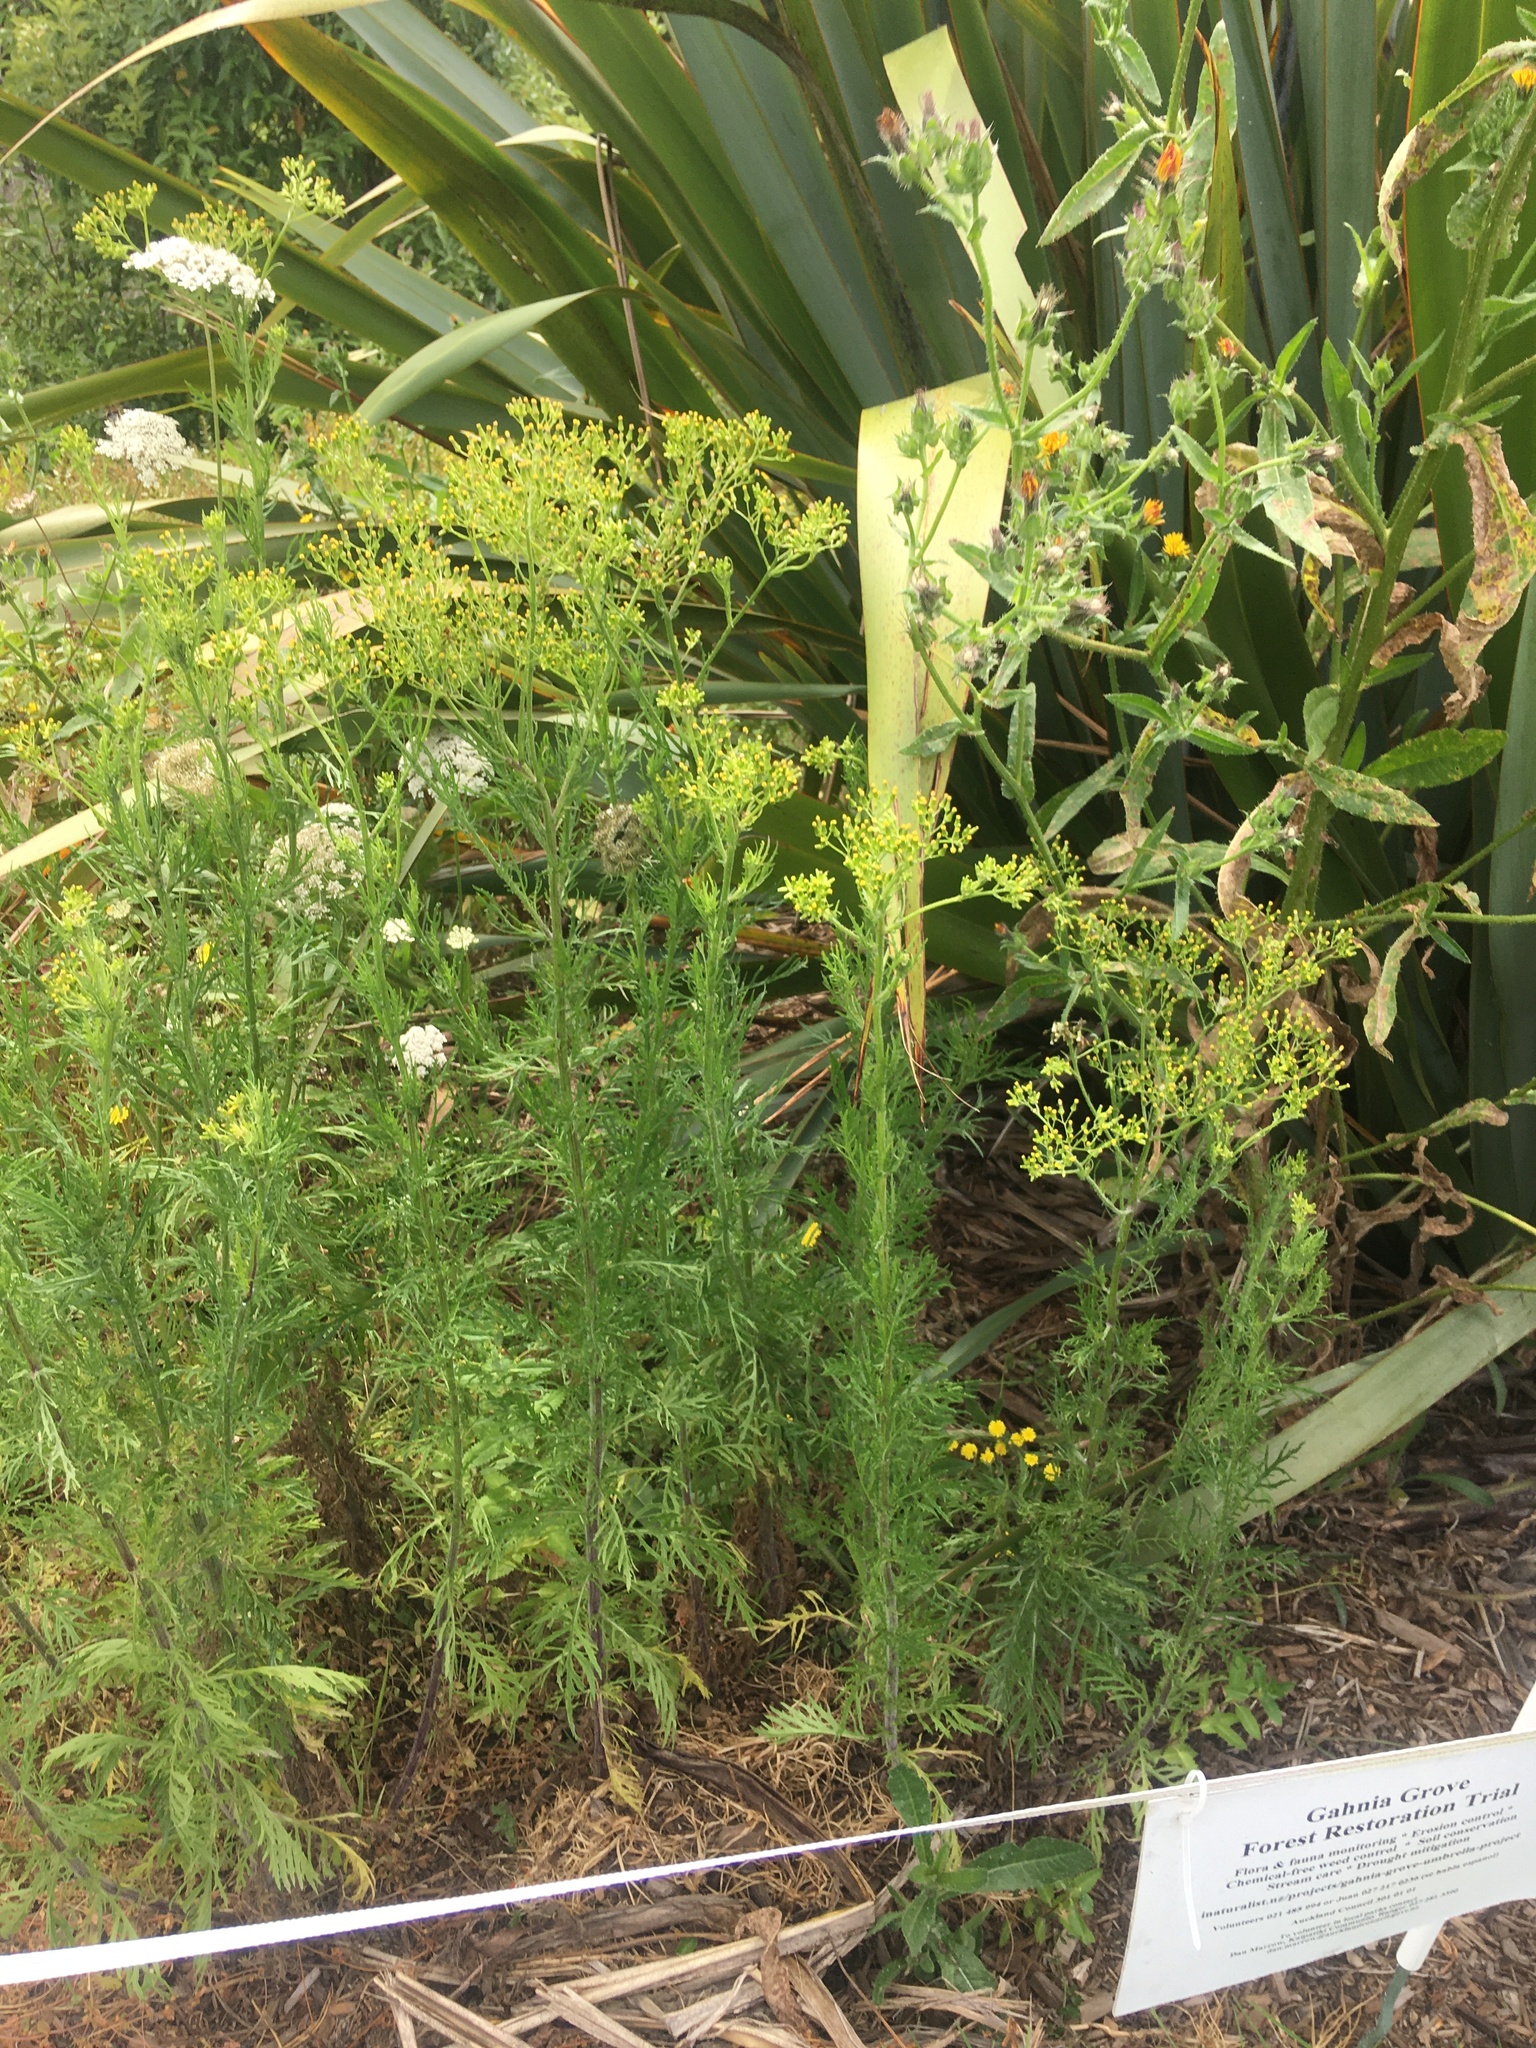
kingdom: Plantae
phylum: Tracheophyta
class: Magnoliopsida
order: Asterales
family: Asteraceae
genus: Senecio
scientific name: Senecio esleri
